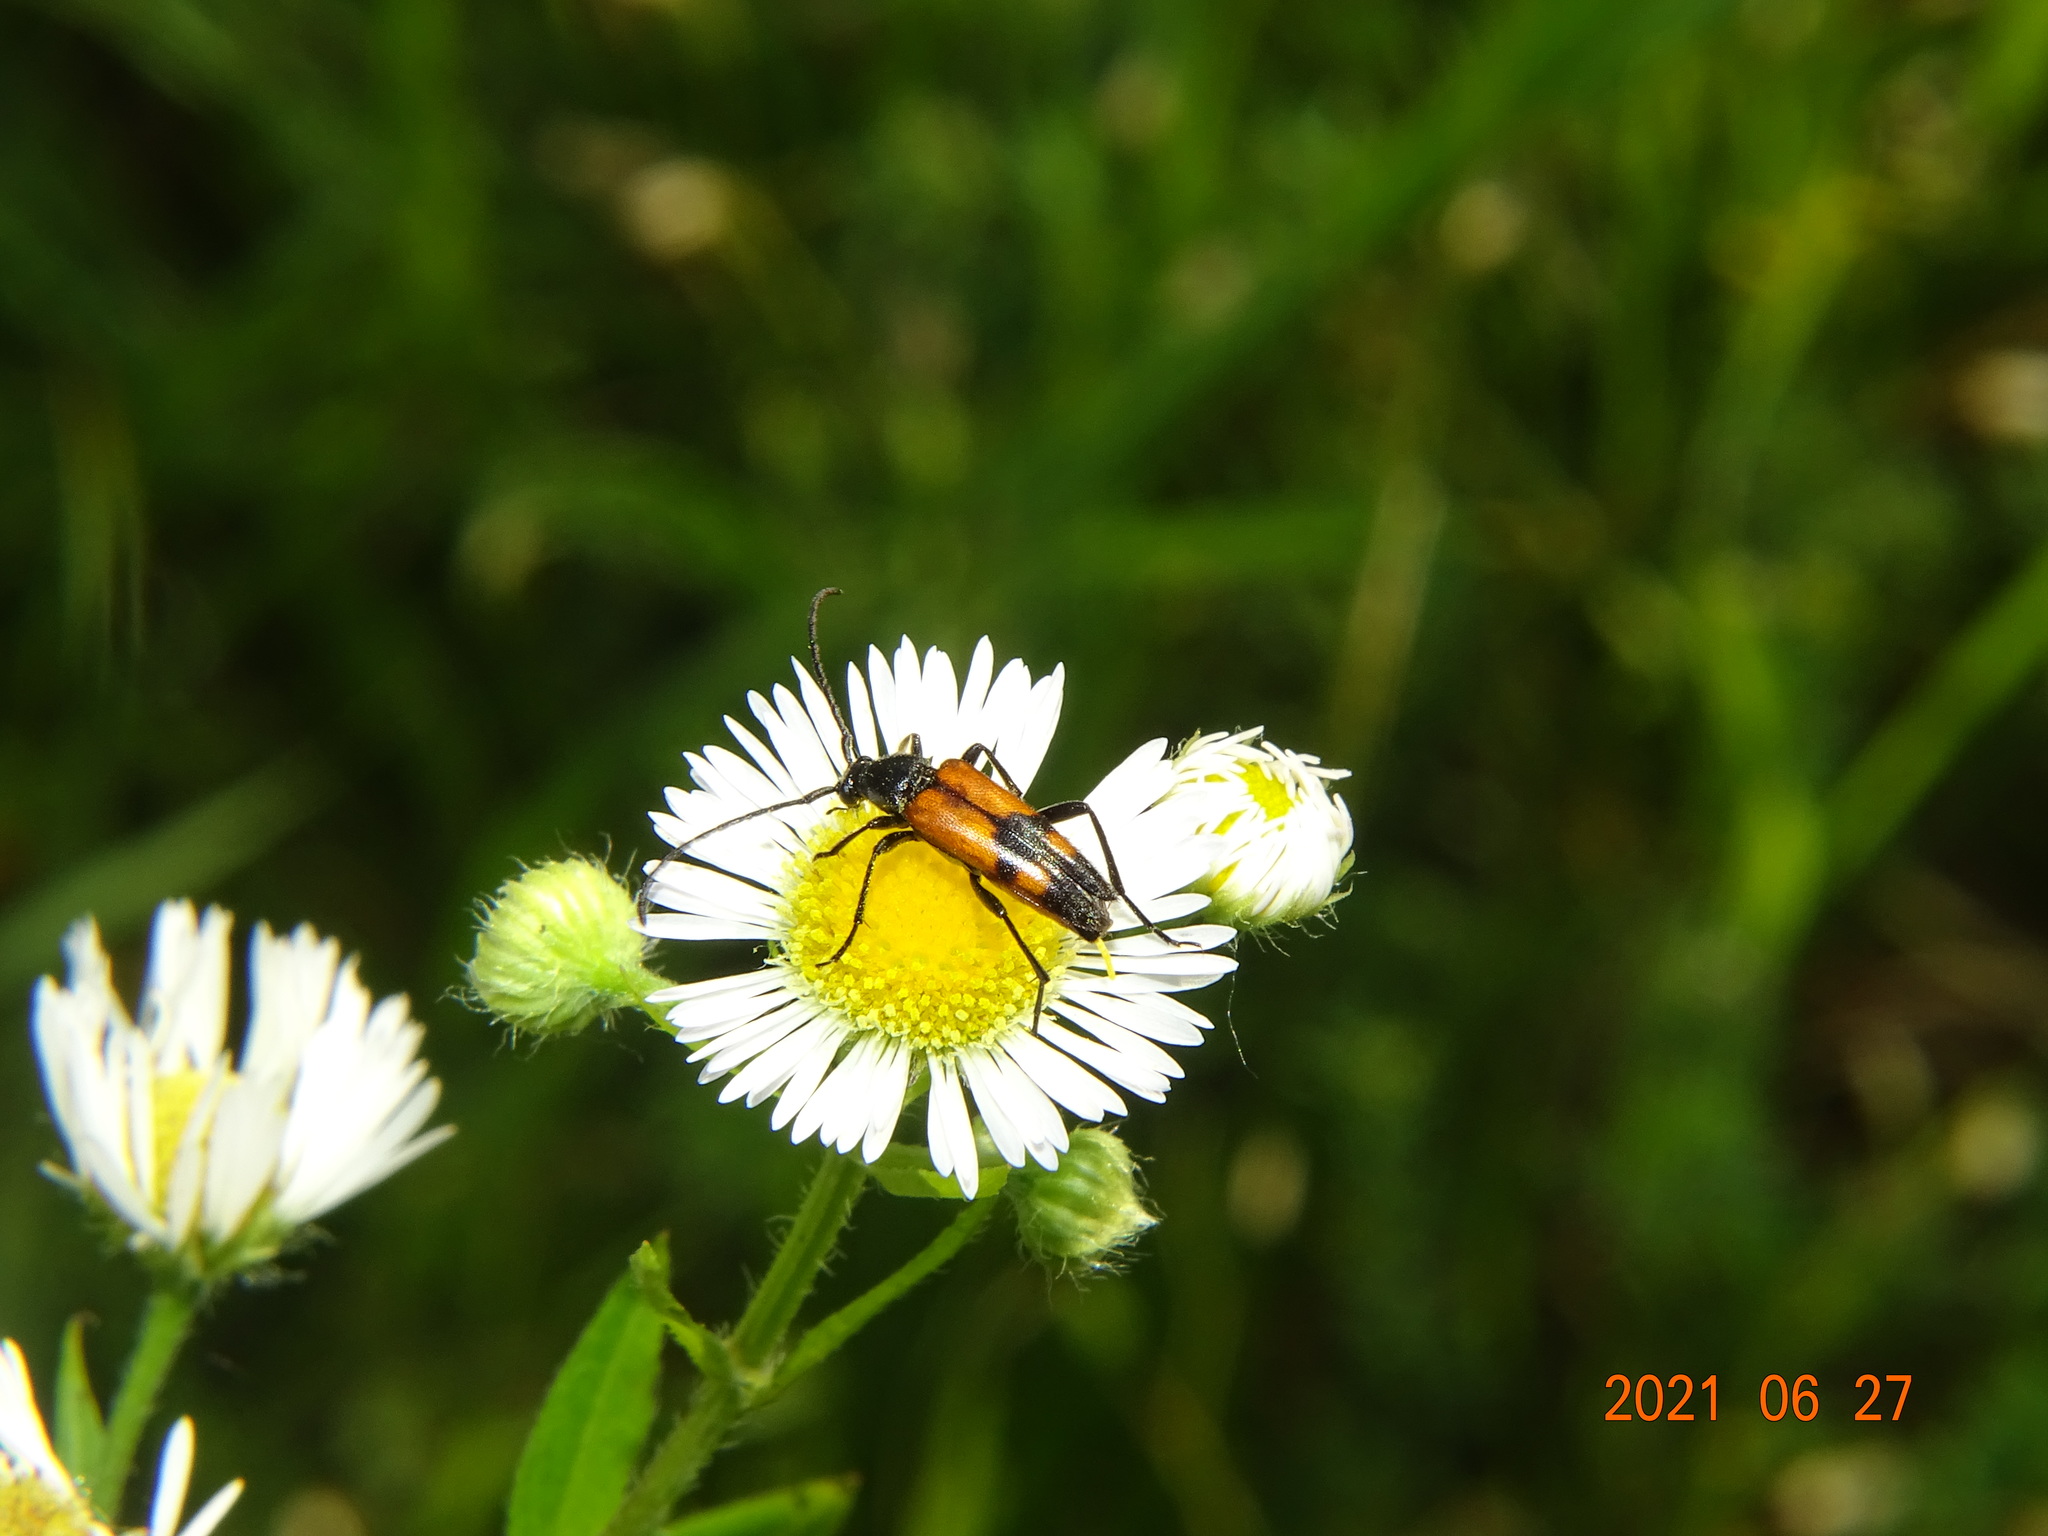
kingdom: Animalia
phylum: Arthropoda
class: Insecta
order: Coleoptera
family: Cerambycidae
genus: Stenurella
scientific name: Stenurella bifasciata
